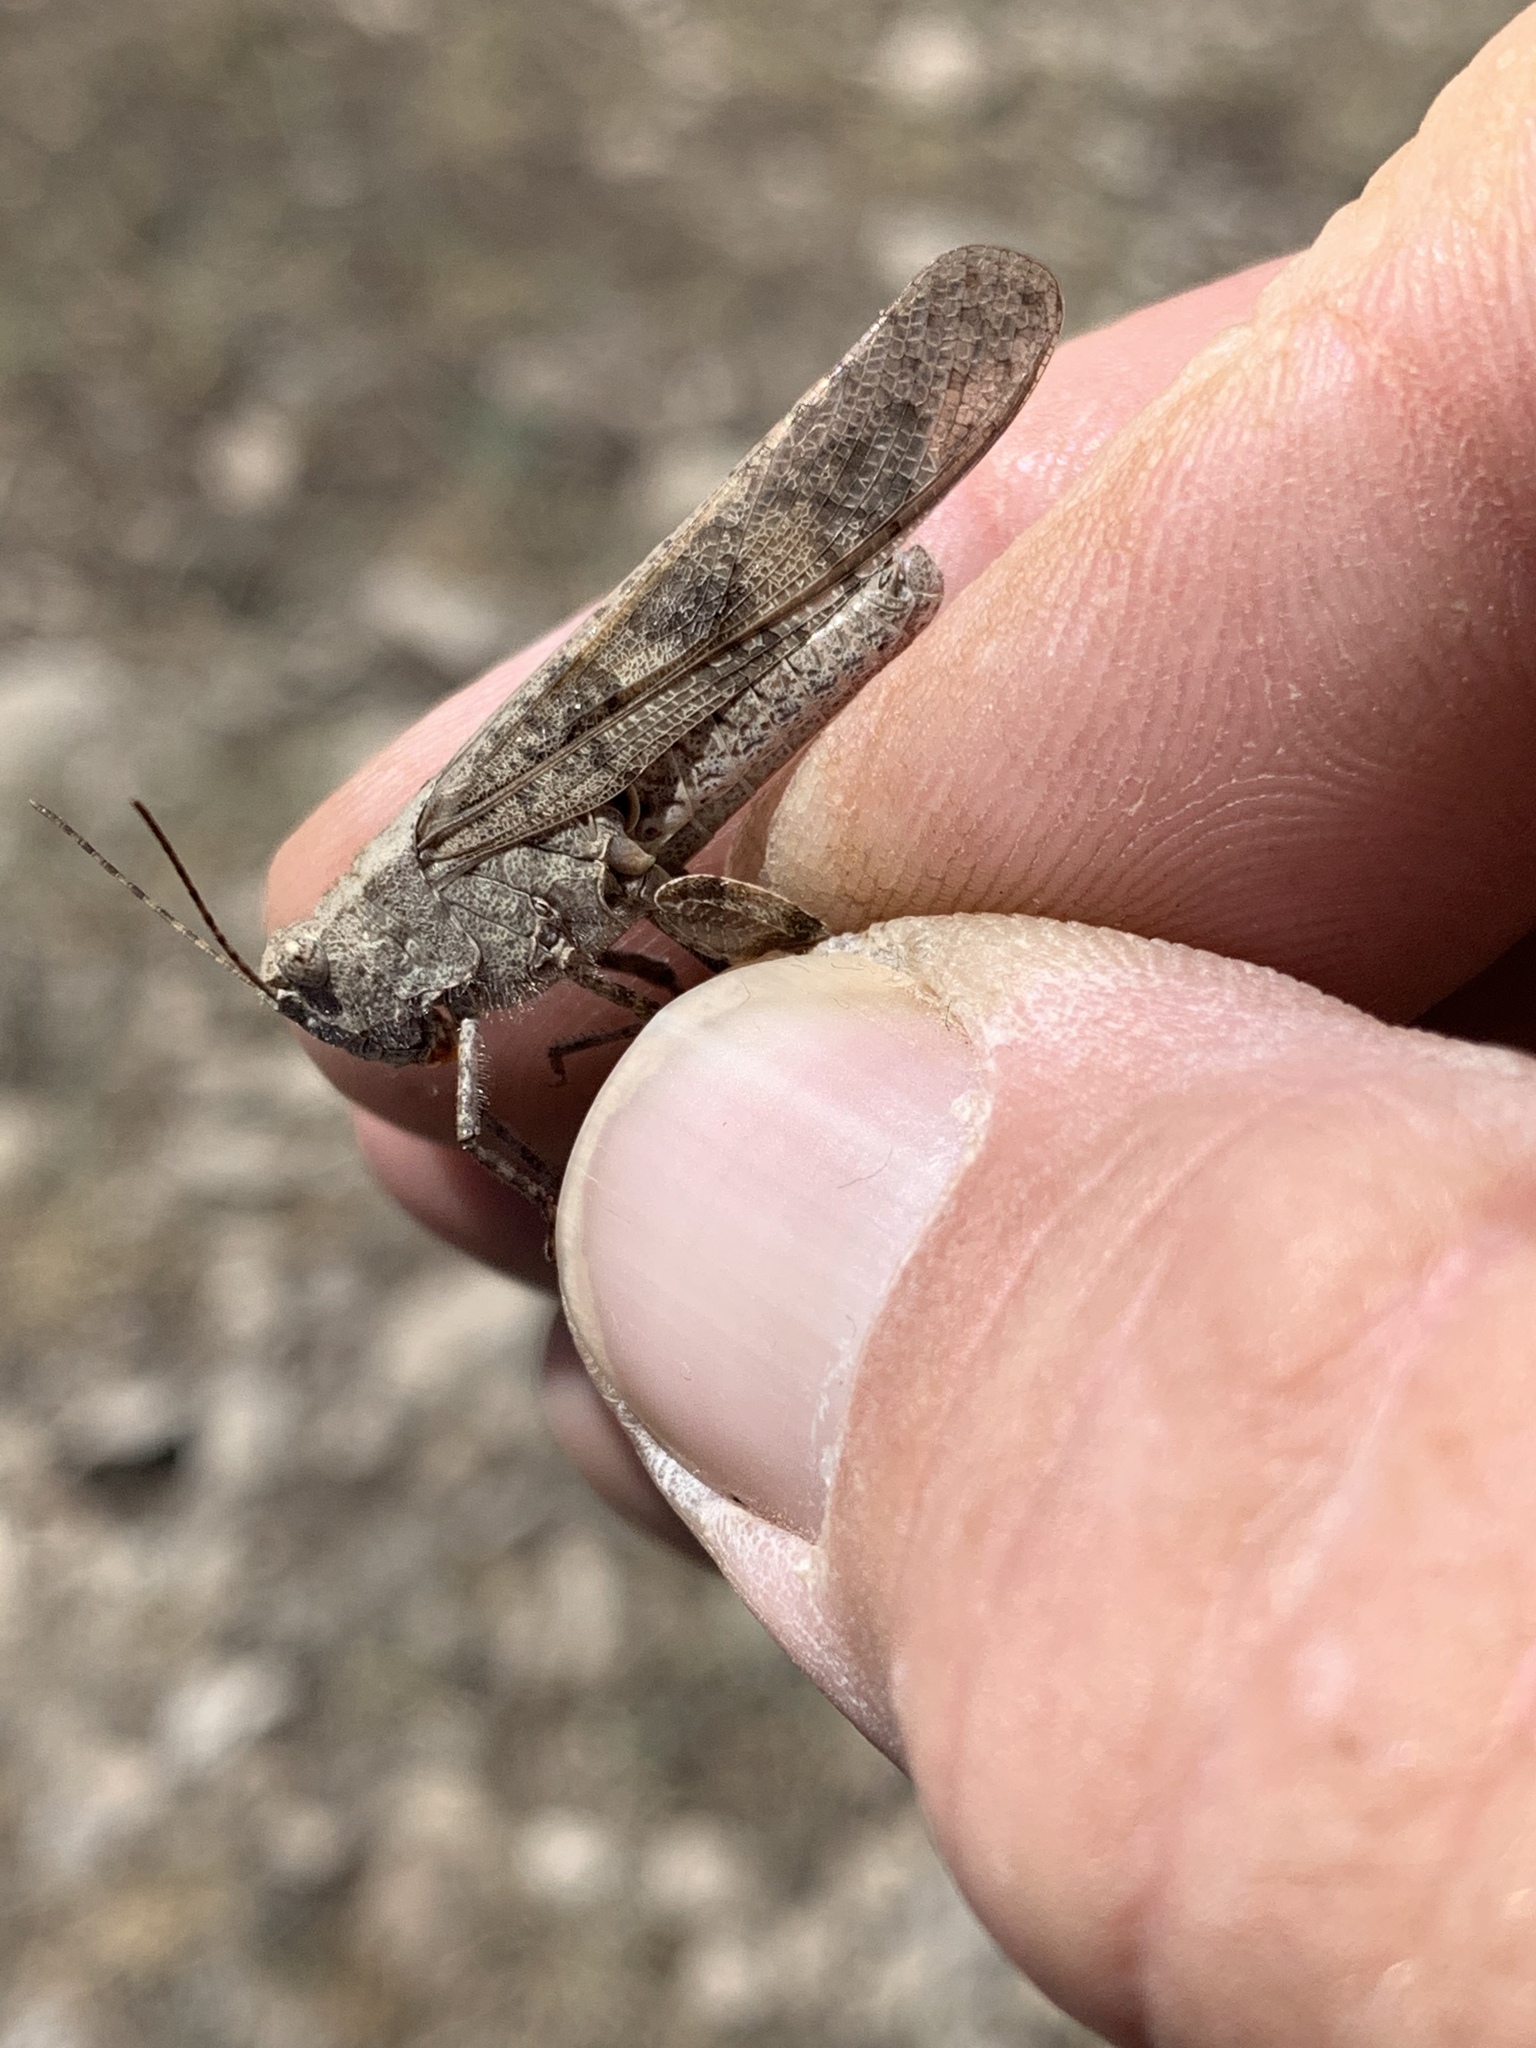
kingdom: Animalia
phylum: Arthropoda
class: Insecta
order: Orthoptera
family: Acrididae
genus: Circotettix
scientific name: Circotettix rabula
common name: Wrangler grasshopper
